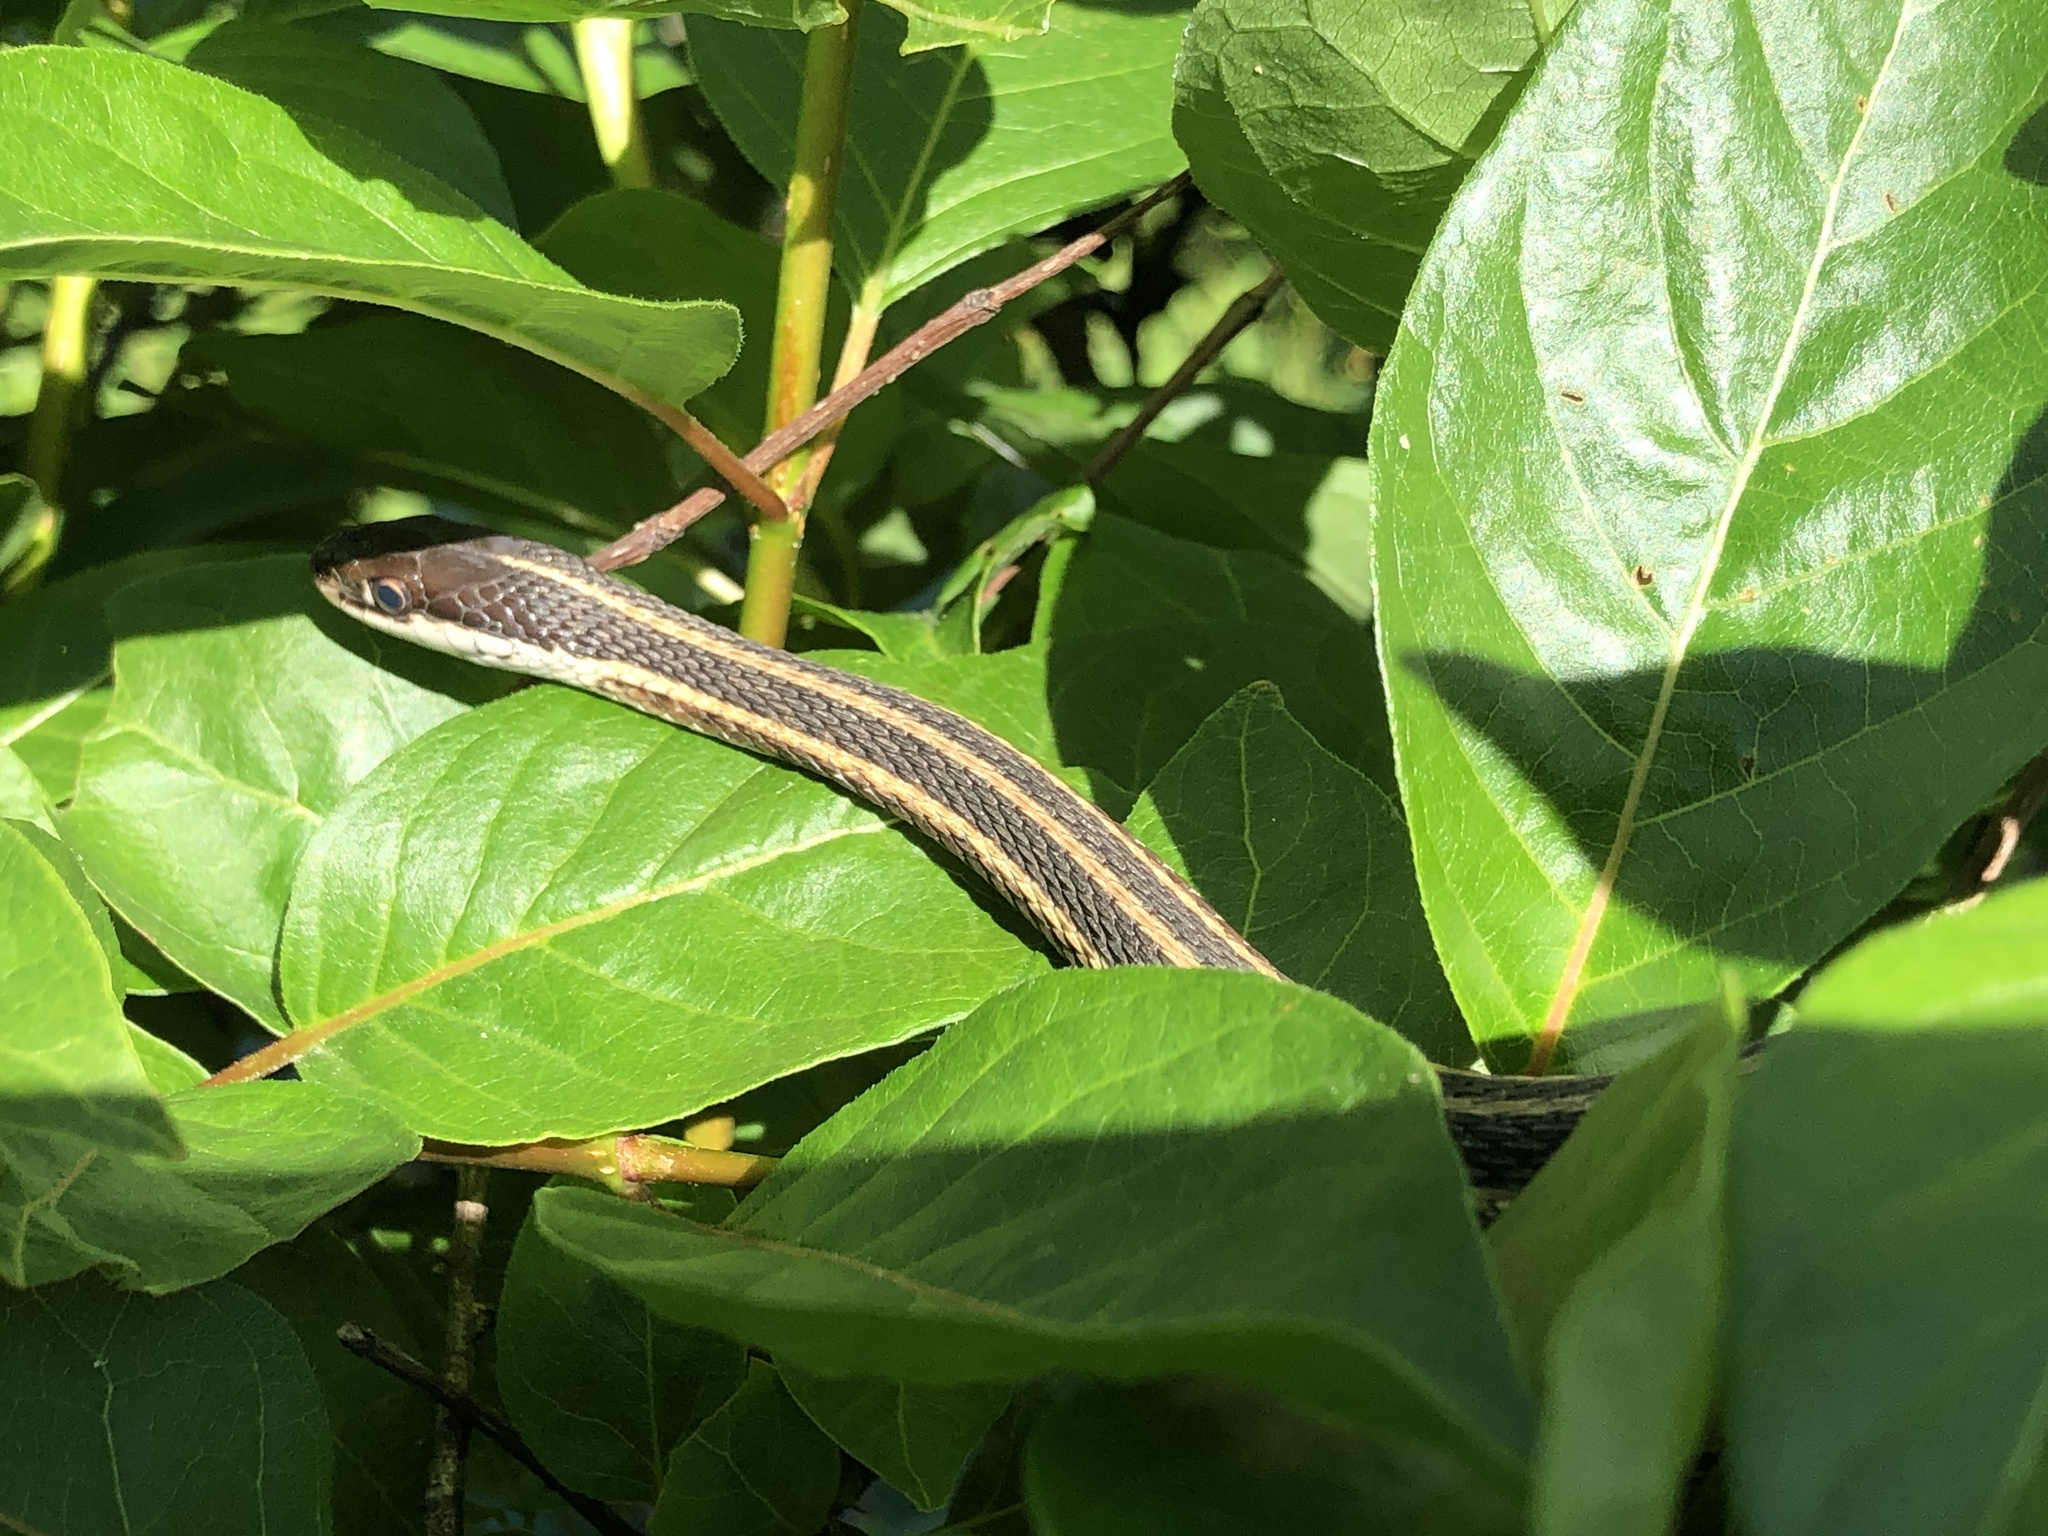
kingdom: Animalia
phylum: Chordata
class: Squamata
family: Colubridae
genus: Thamnophis
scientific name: Thamnophis saurita
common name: Eastern ribbonsnake
